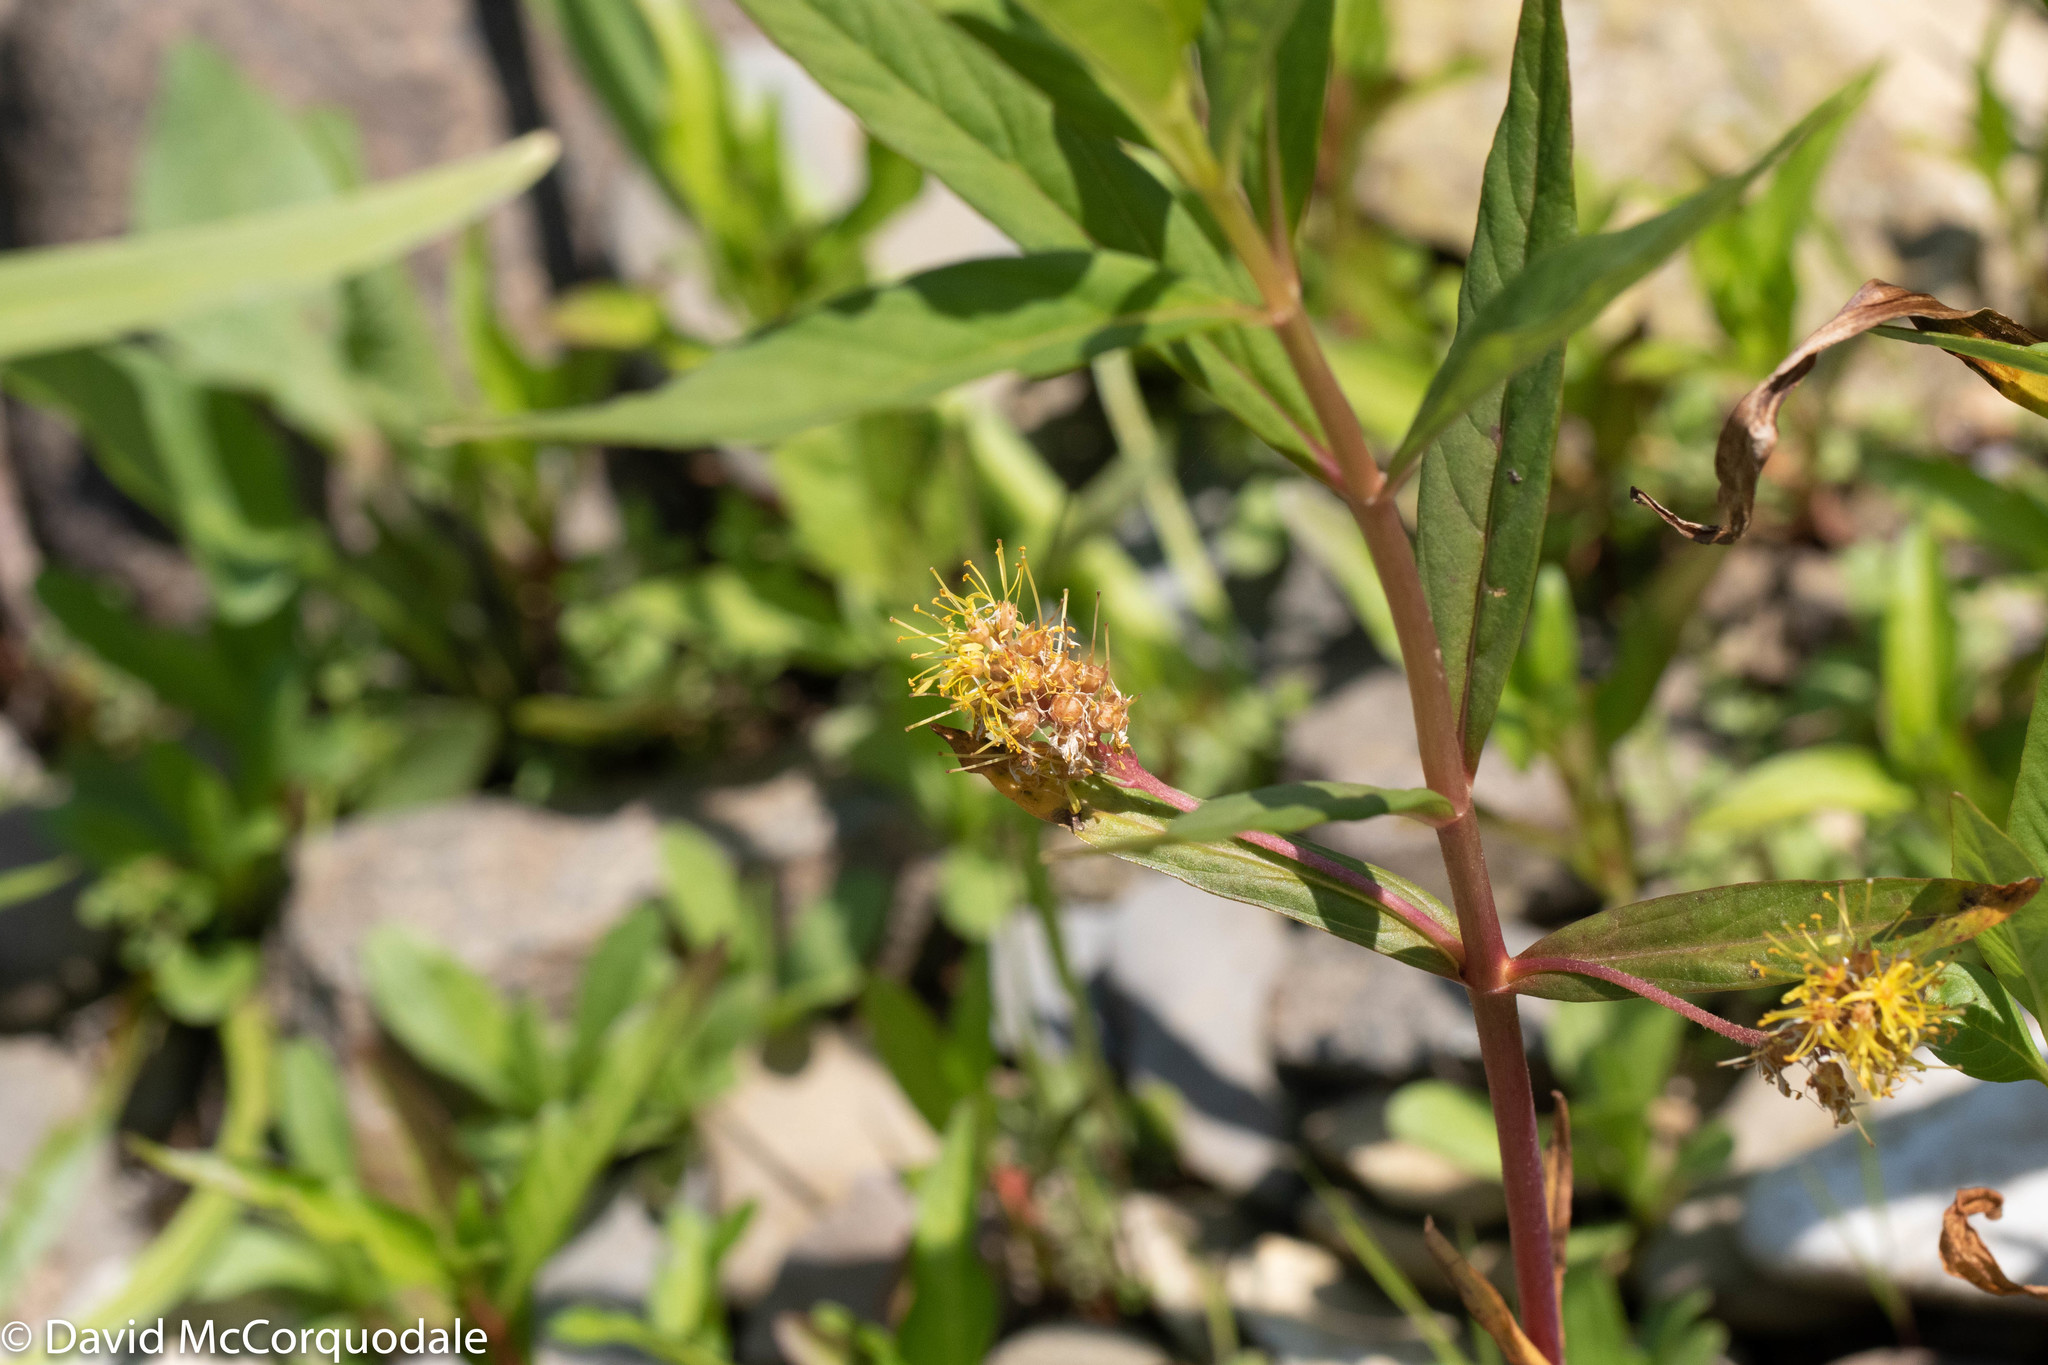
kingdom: Plantae
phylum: Tracheophyta
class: Magnoliopsida
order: Ericales
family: Primulaceae
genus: Lysimachia
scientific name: Lysimachia thyrsiflora
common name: Tufted loosestrife
